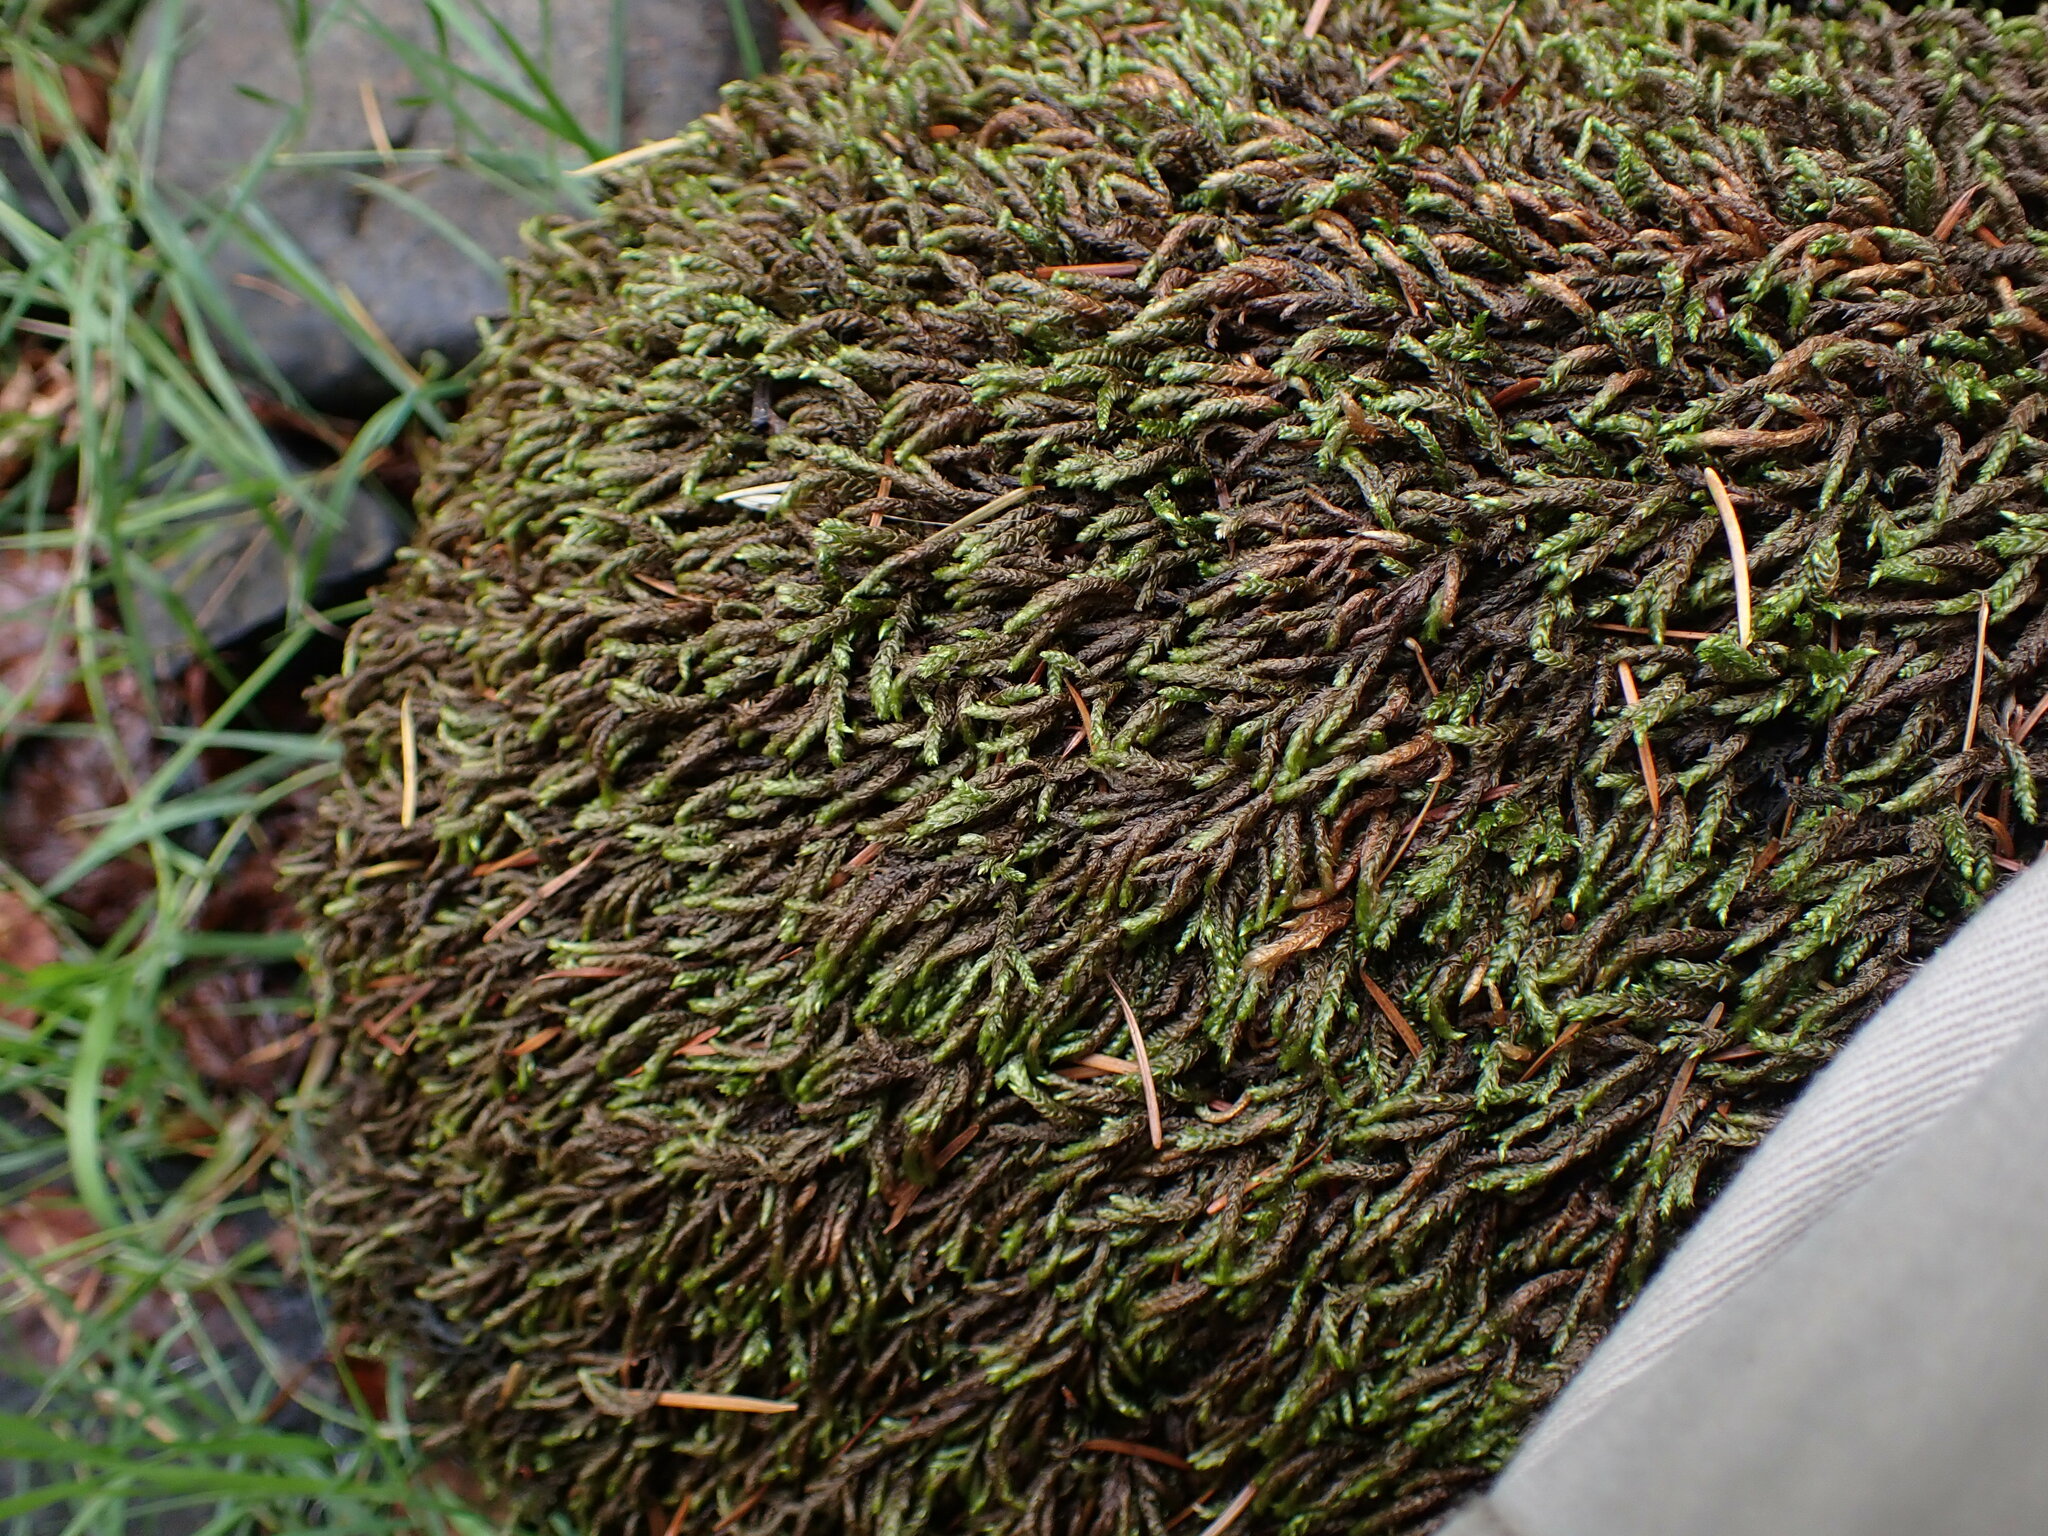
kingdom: Plantae
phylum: Bryophyta
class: Bryopsida
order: Hypnales
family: Brachytheciaceae
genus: Scleropodium
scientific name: Scleropodium obtusifolium
